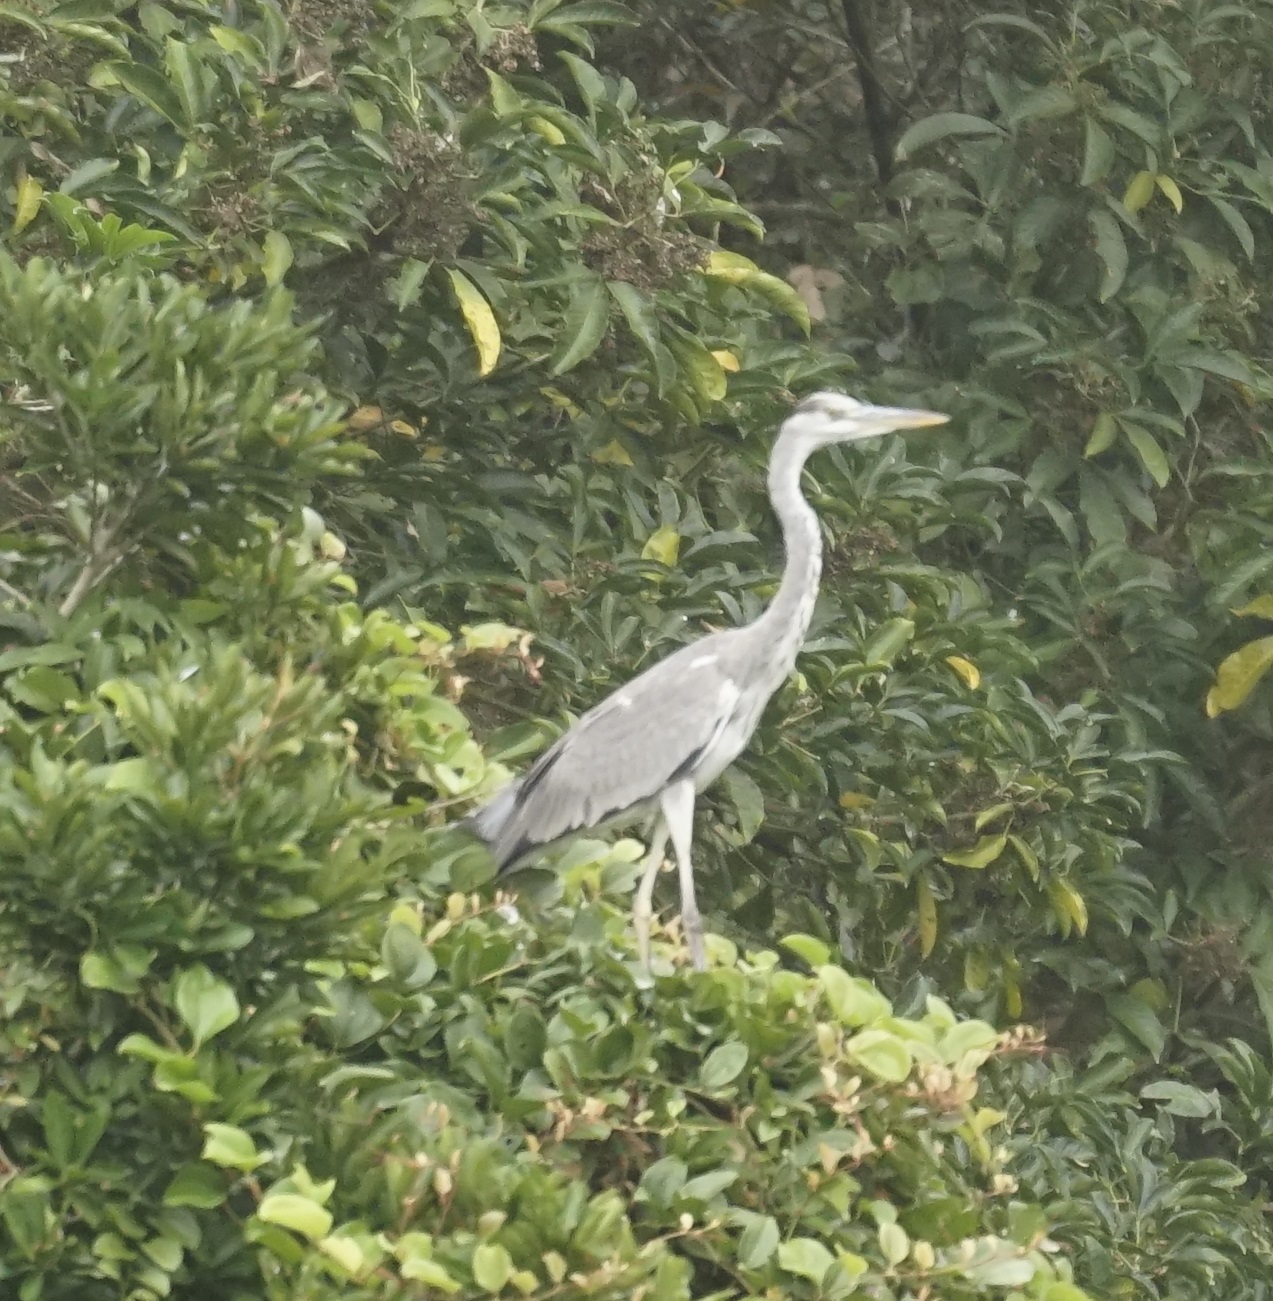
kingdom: Animalia
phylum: Chordata
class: Aves
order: Pelecaniformes
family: Ardeidae
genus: Ardea
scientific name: Ardea cinerea
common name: Grey heron
